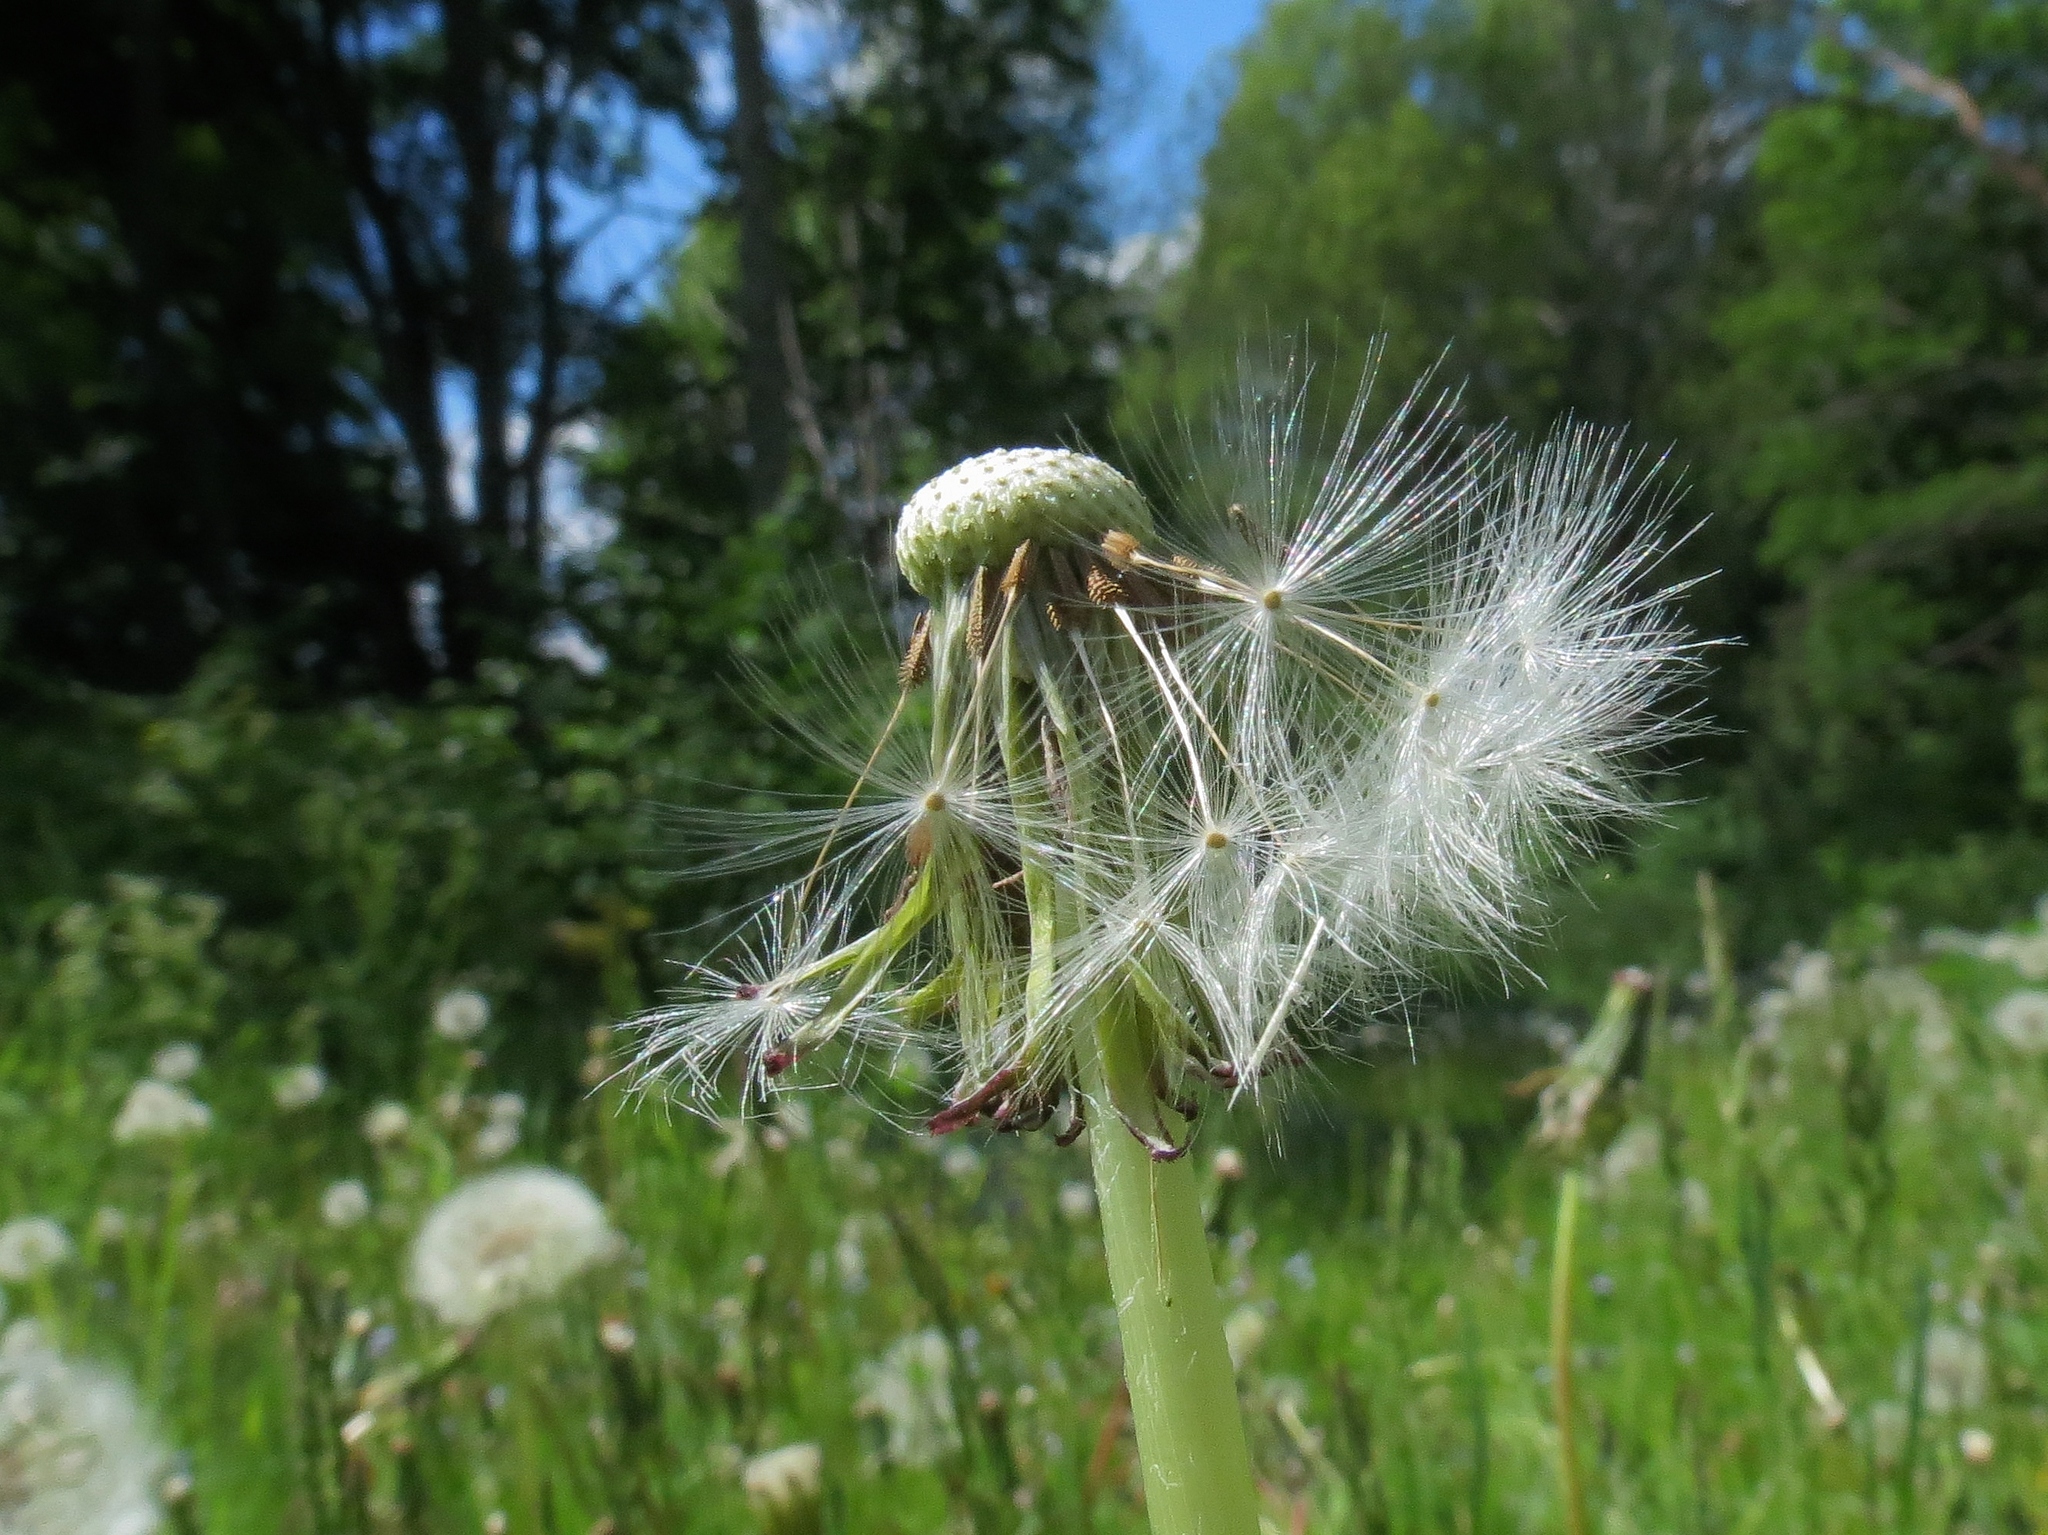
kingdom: Plantae
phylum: Tracheophyta
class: Magnoliopsida
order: Asterales
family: Asteraceae
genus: Taraxacum
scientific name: Taraxacum officinale
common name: Common dandelion
